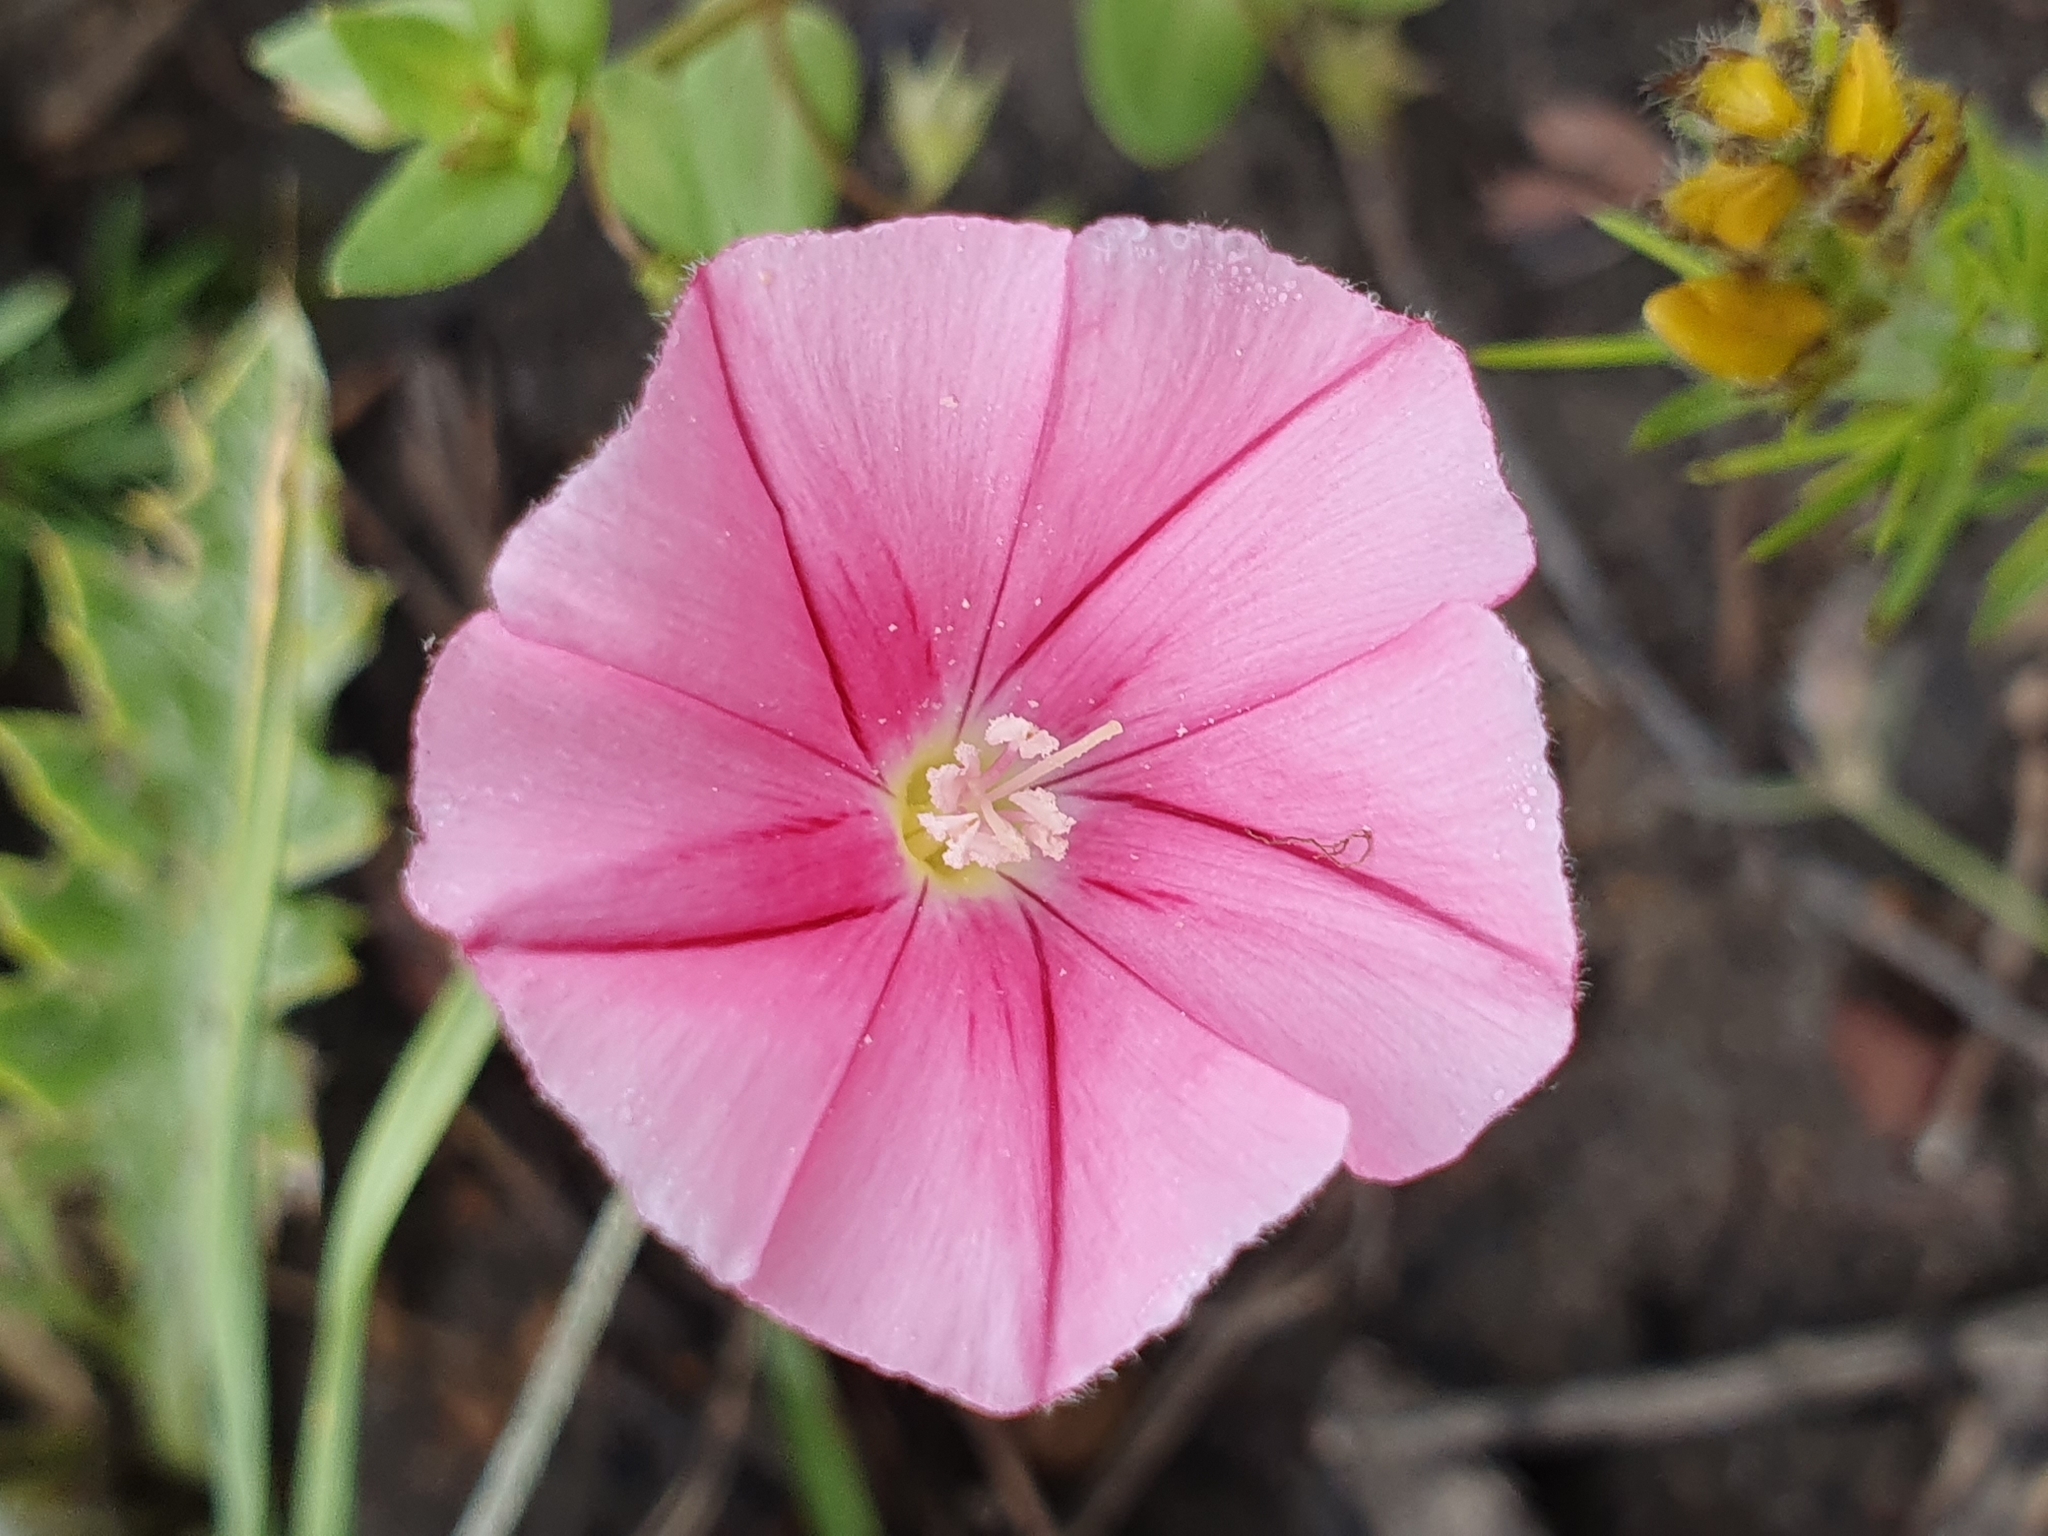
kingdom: Plantae
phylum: Tracheophyta
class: Magnoliopsida
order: Solanales
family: Convolvulaceae
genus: Convolvulus
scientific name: Convolvulus cantabrica
